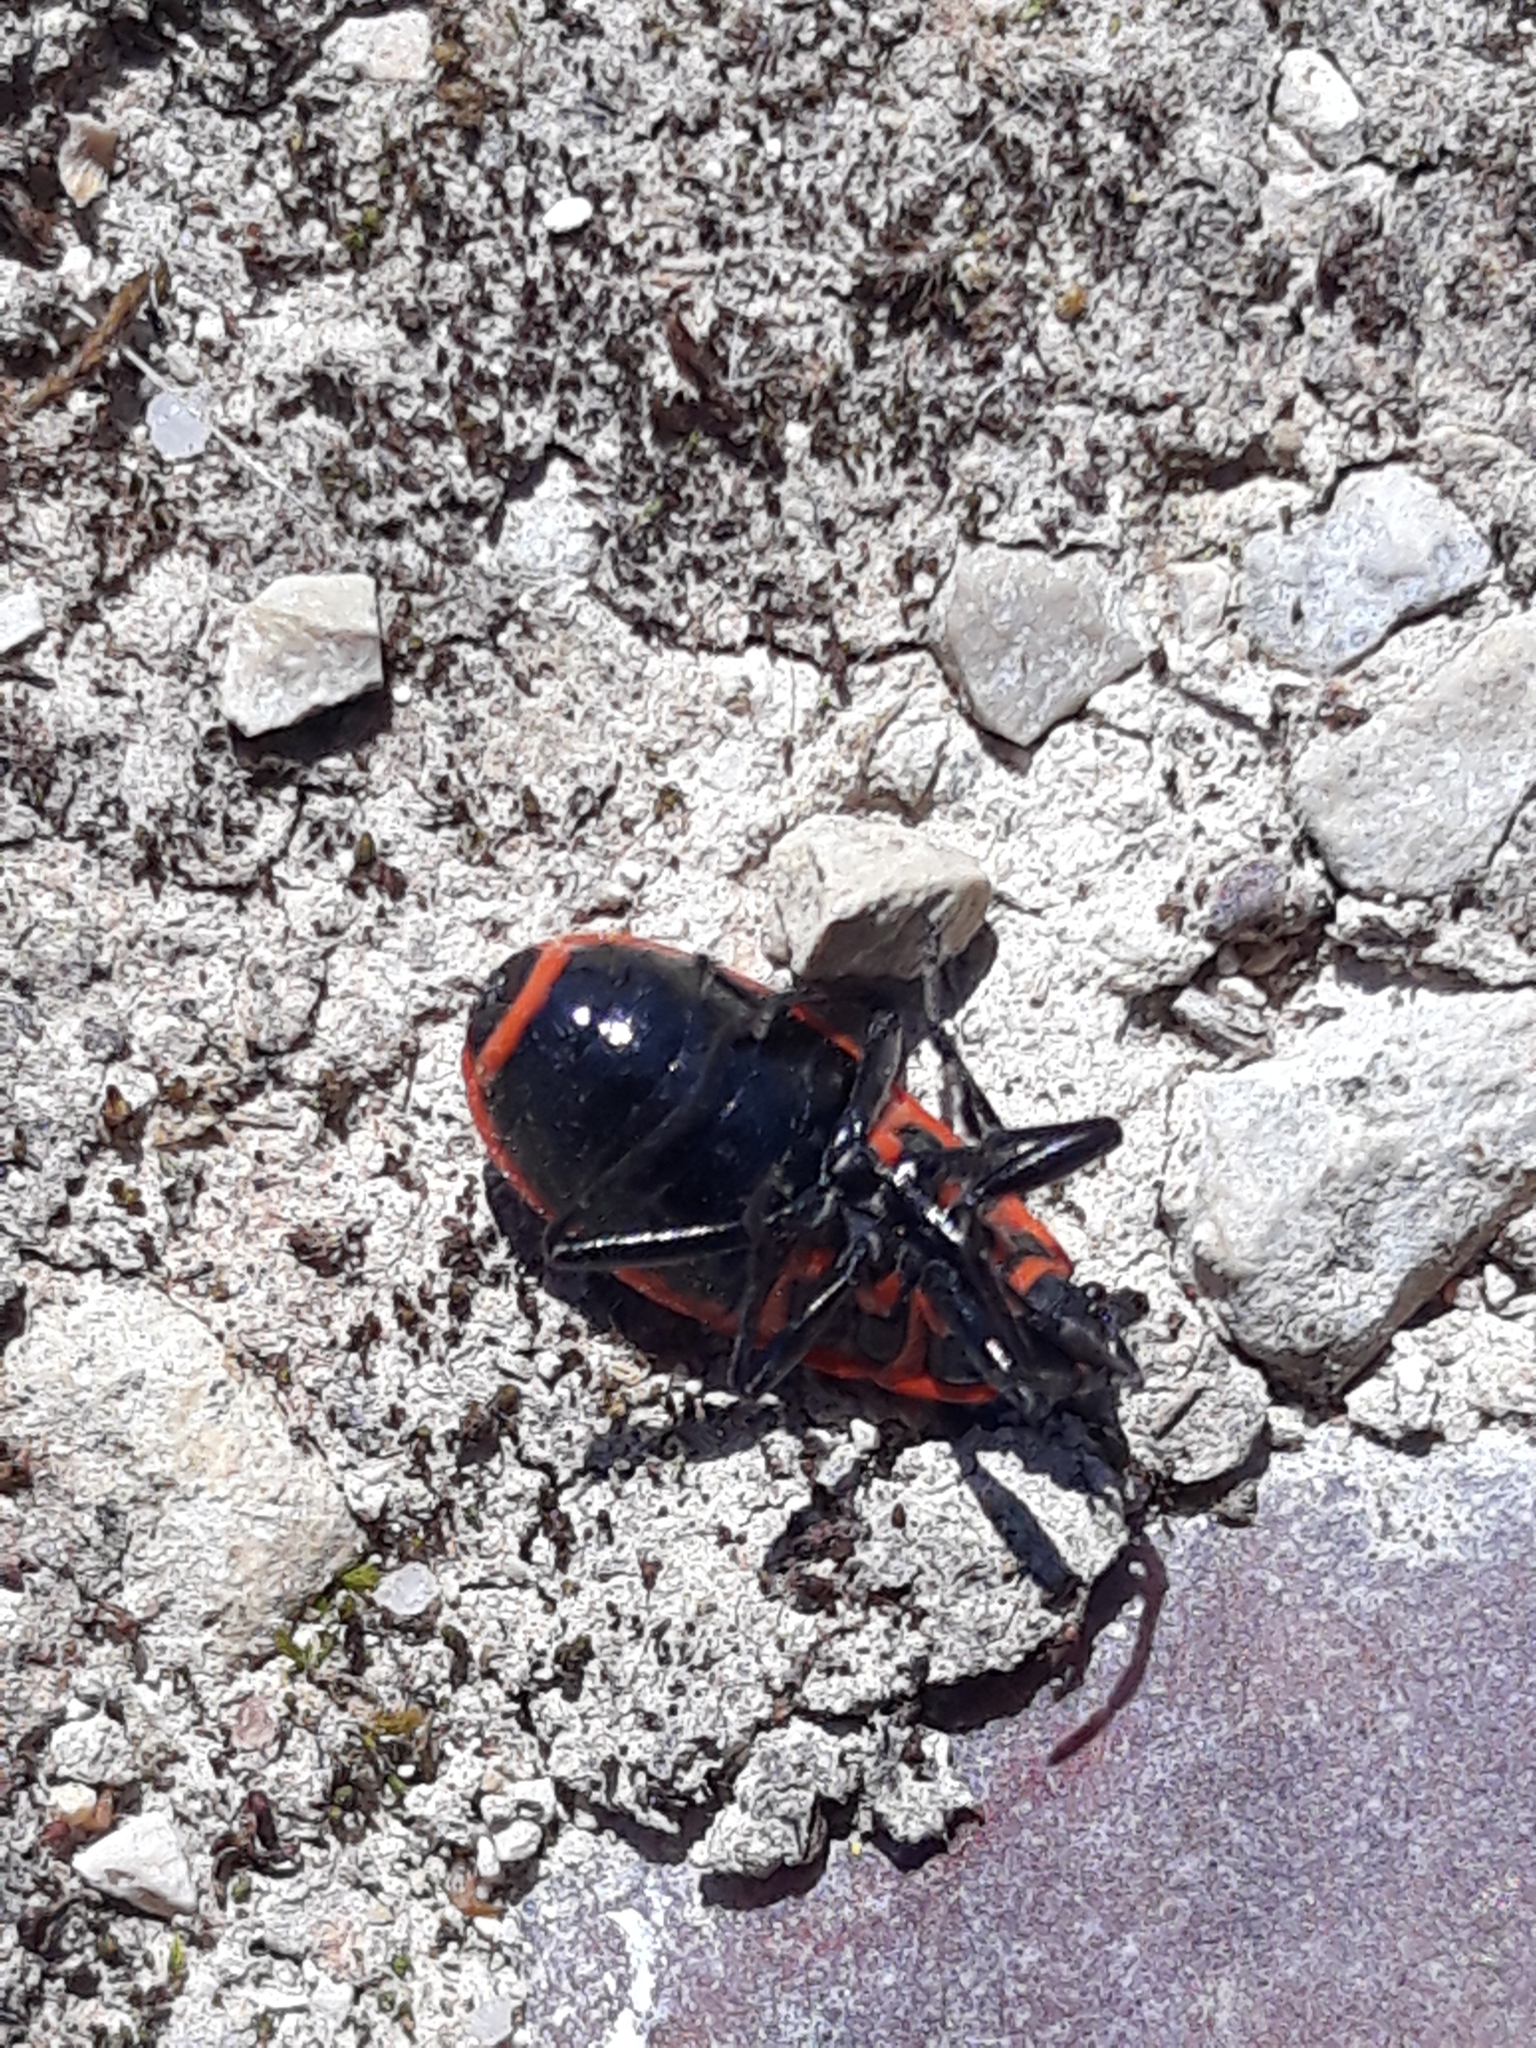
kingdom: Animalia
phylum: Arthropoda
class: Insecta
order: Hemiptera
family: Pyrrhocoridae
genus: Pyrrhocoris
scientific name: Pyrrhocoris apterus
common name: Firebug
